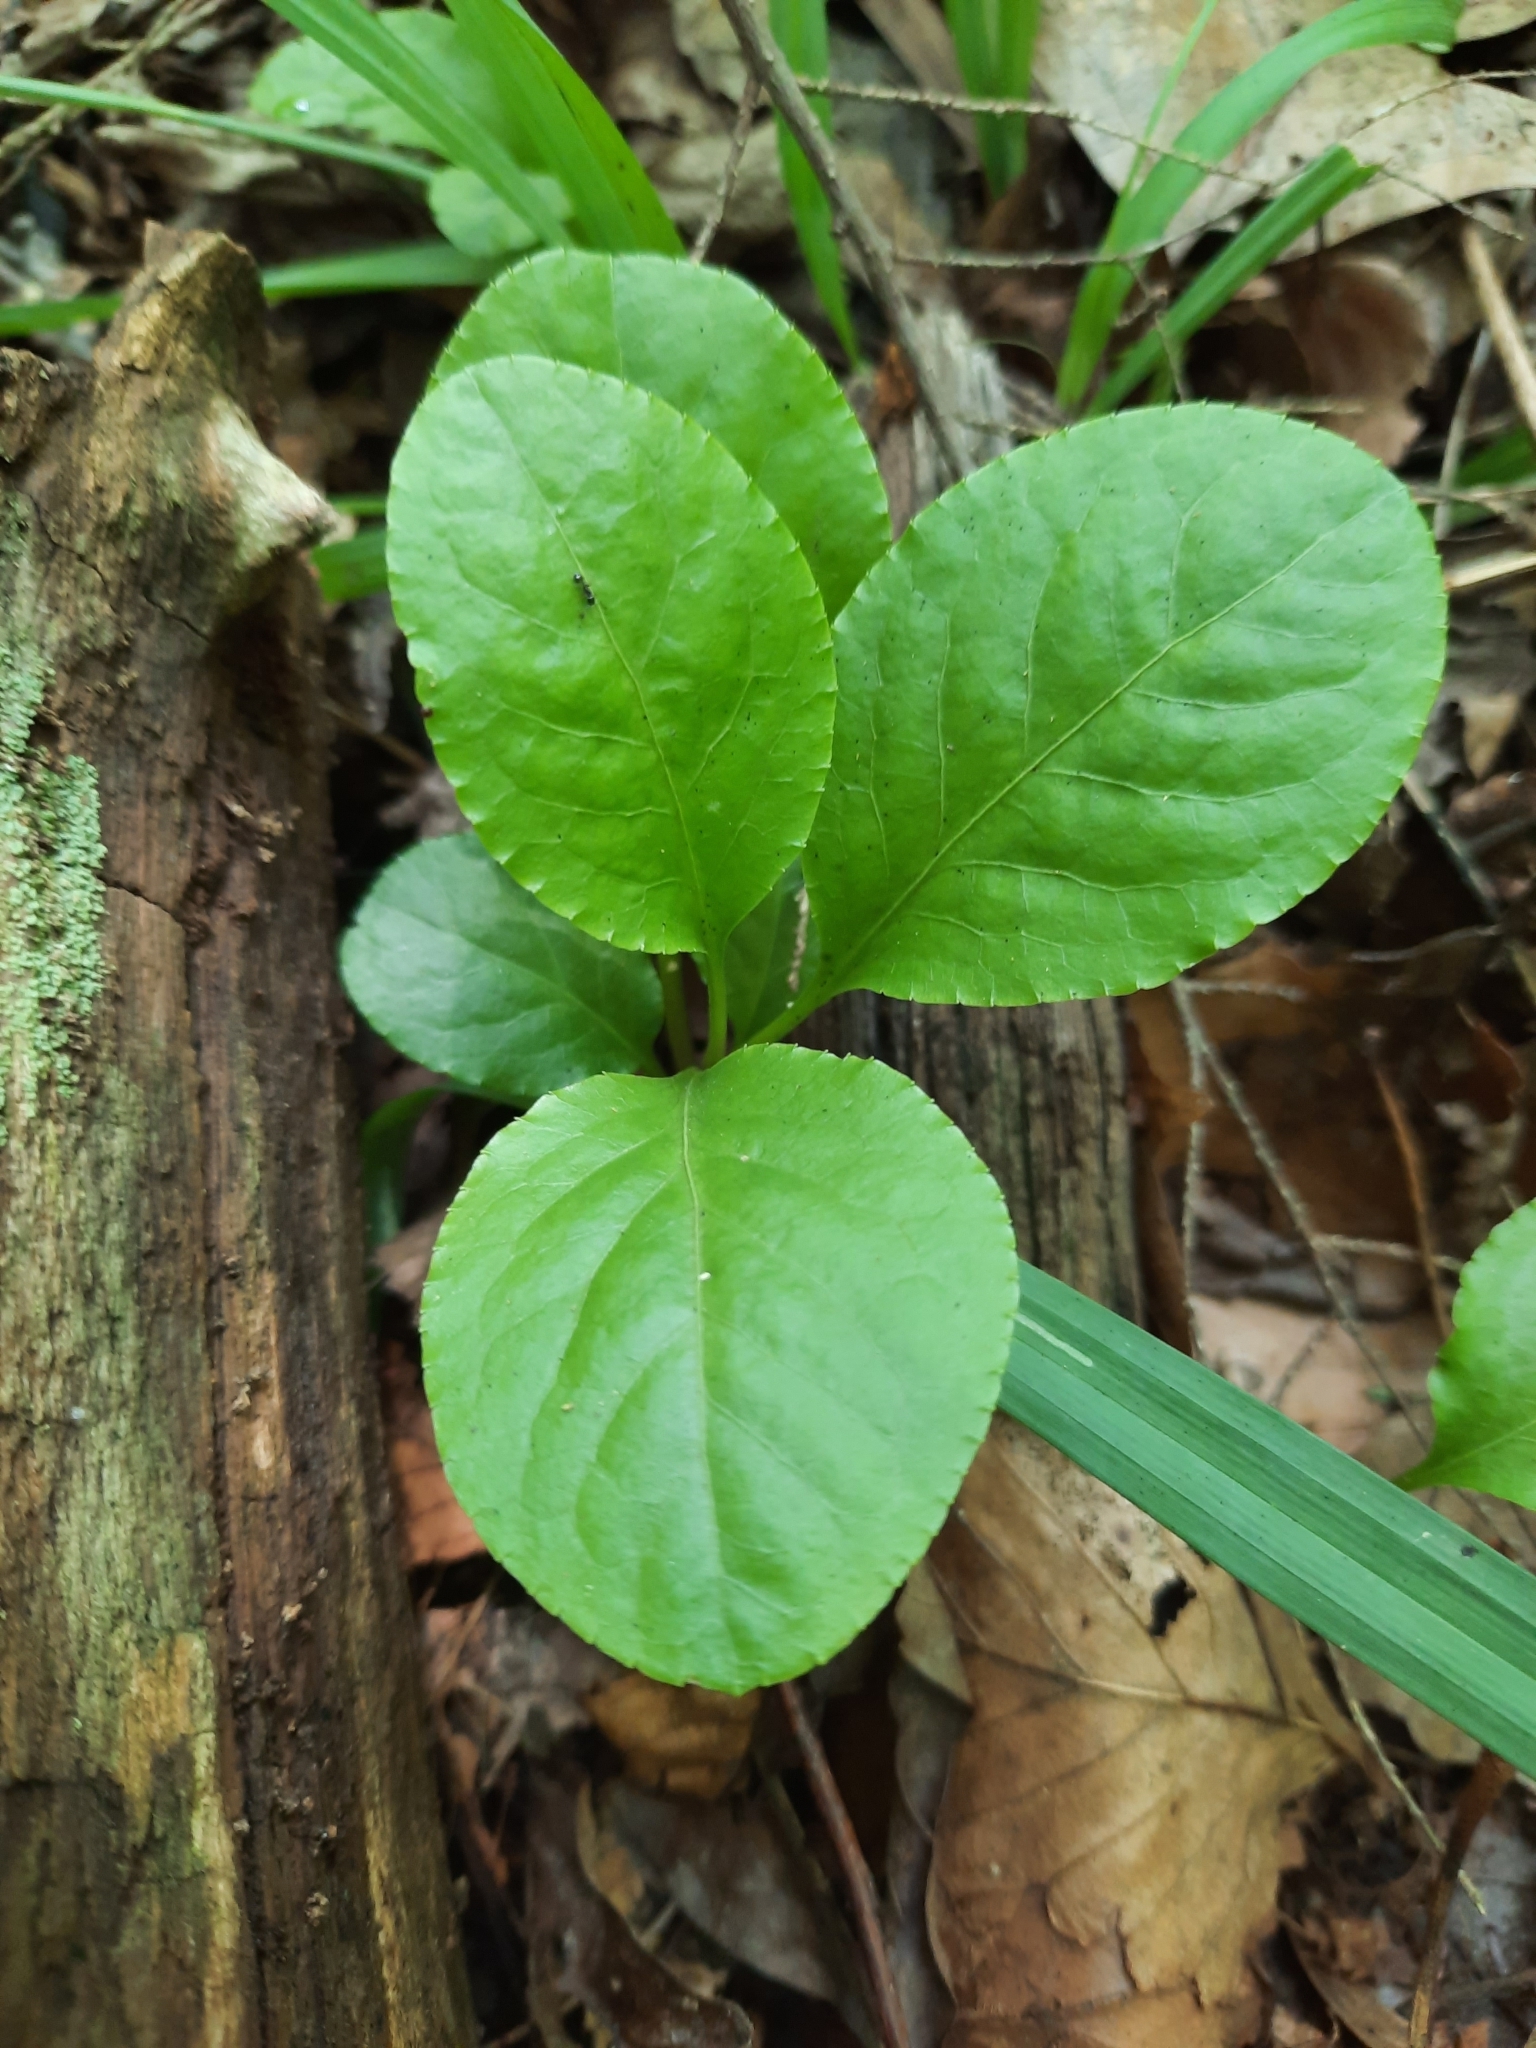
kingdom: Plantae
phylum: Tracheophyta
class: Magnoliopsida
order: Ericales
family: Ericaceae
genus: Pyrola
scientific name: Pyrola elliptica
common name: Shinleaf
